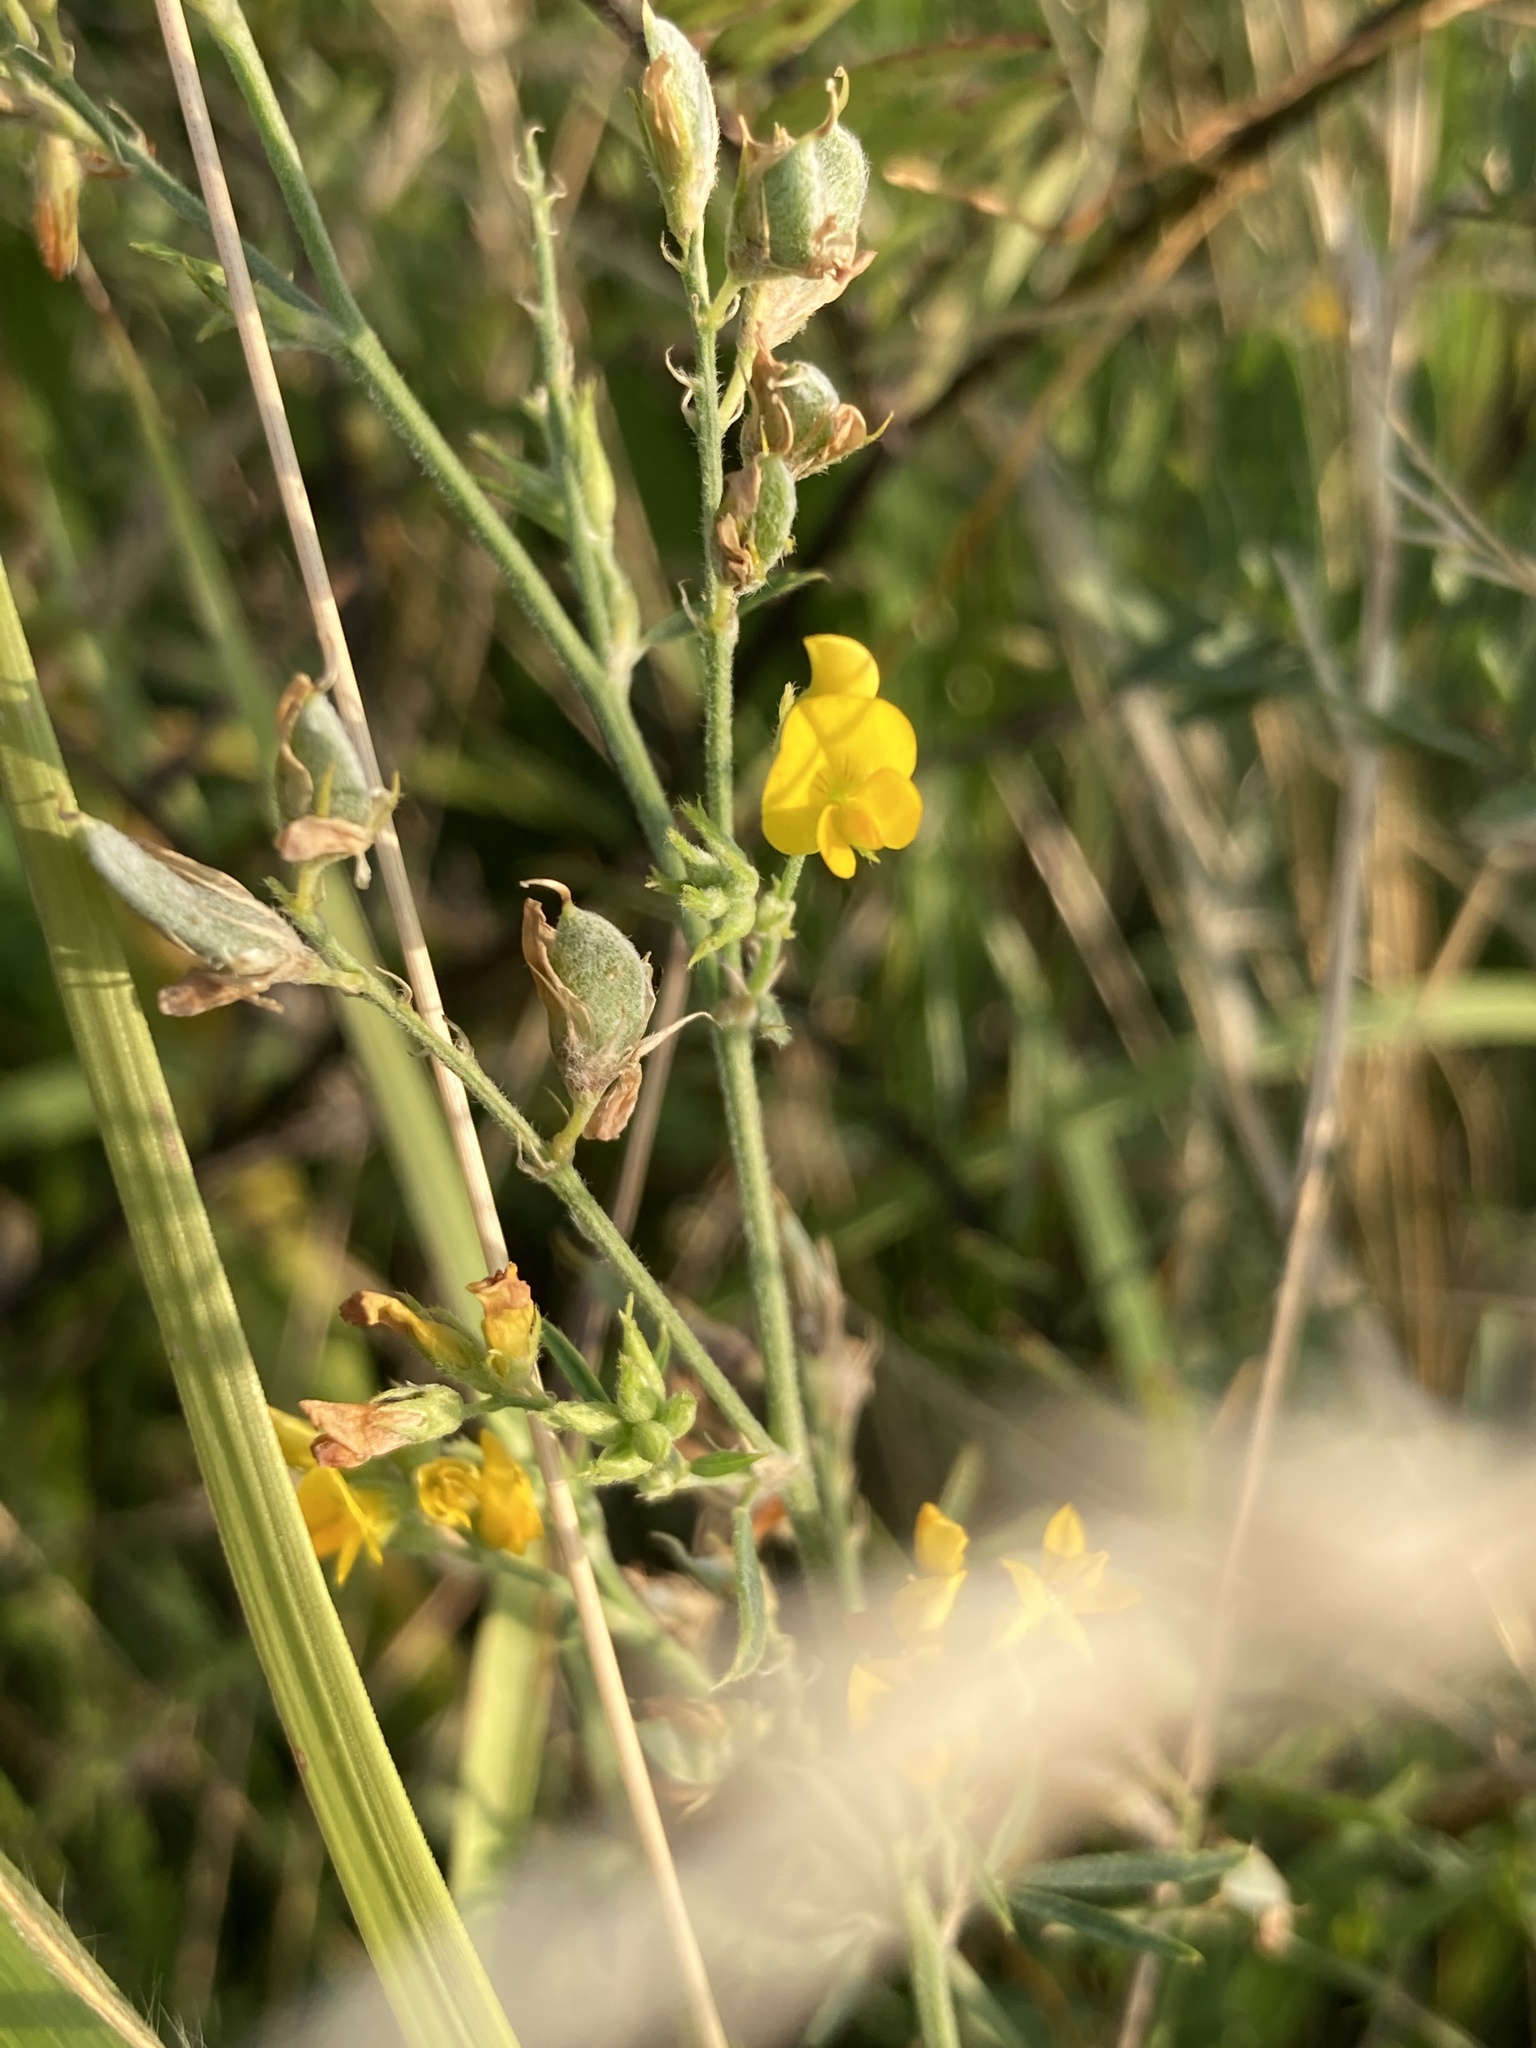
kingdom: Plantae
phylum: Tracheophyta
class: Magnoliopsida
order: Fabales
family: Fabaceae
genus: Medicago
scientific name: Medicago falcata
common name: Sickle medick
